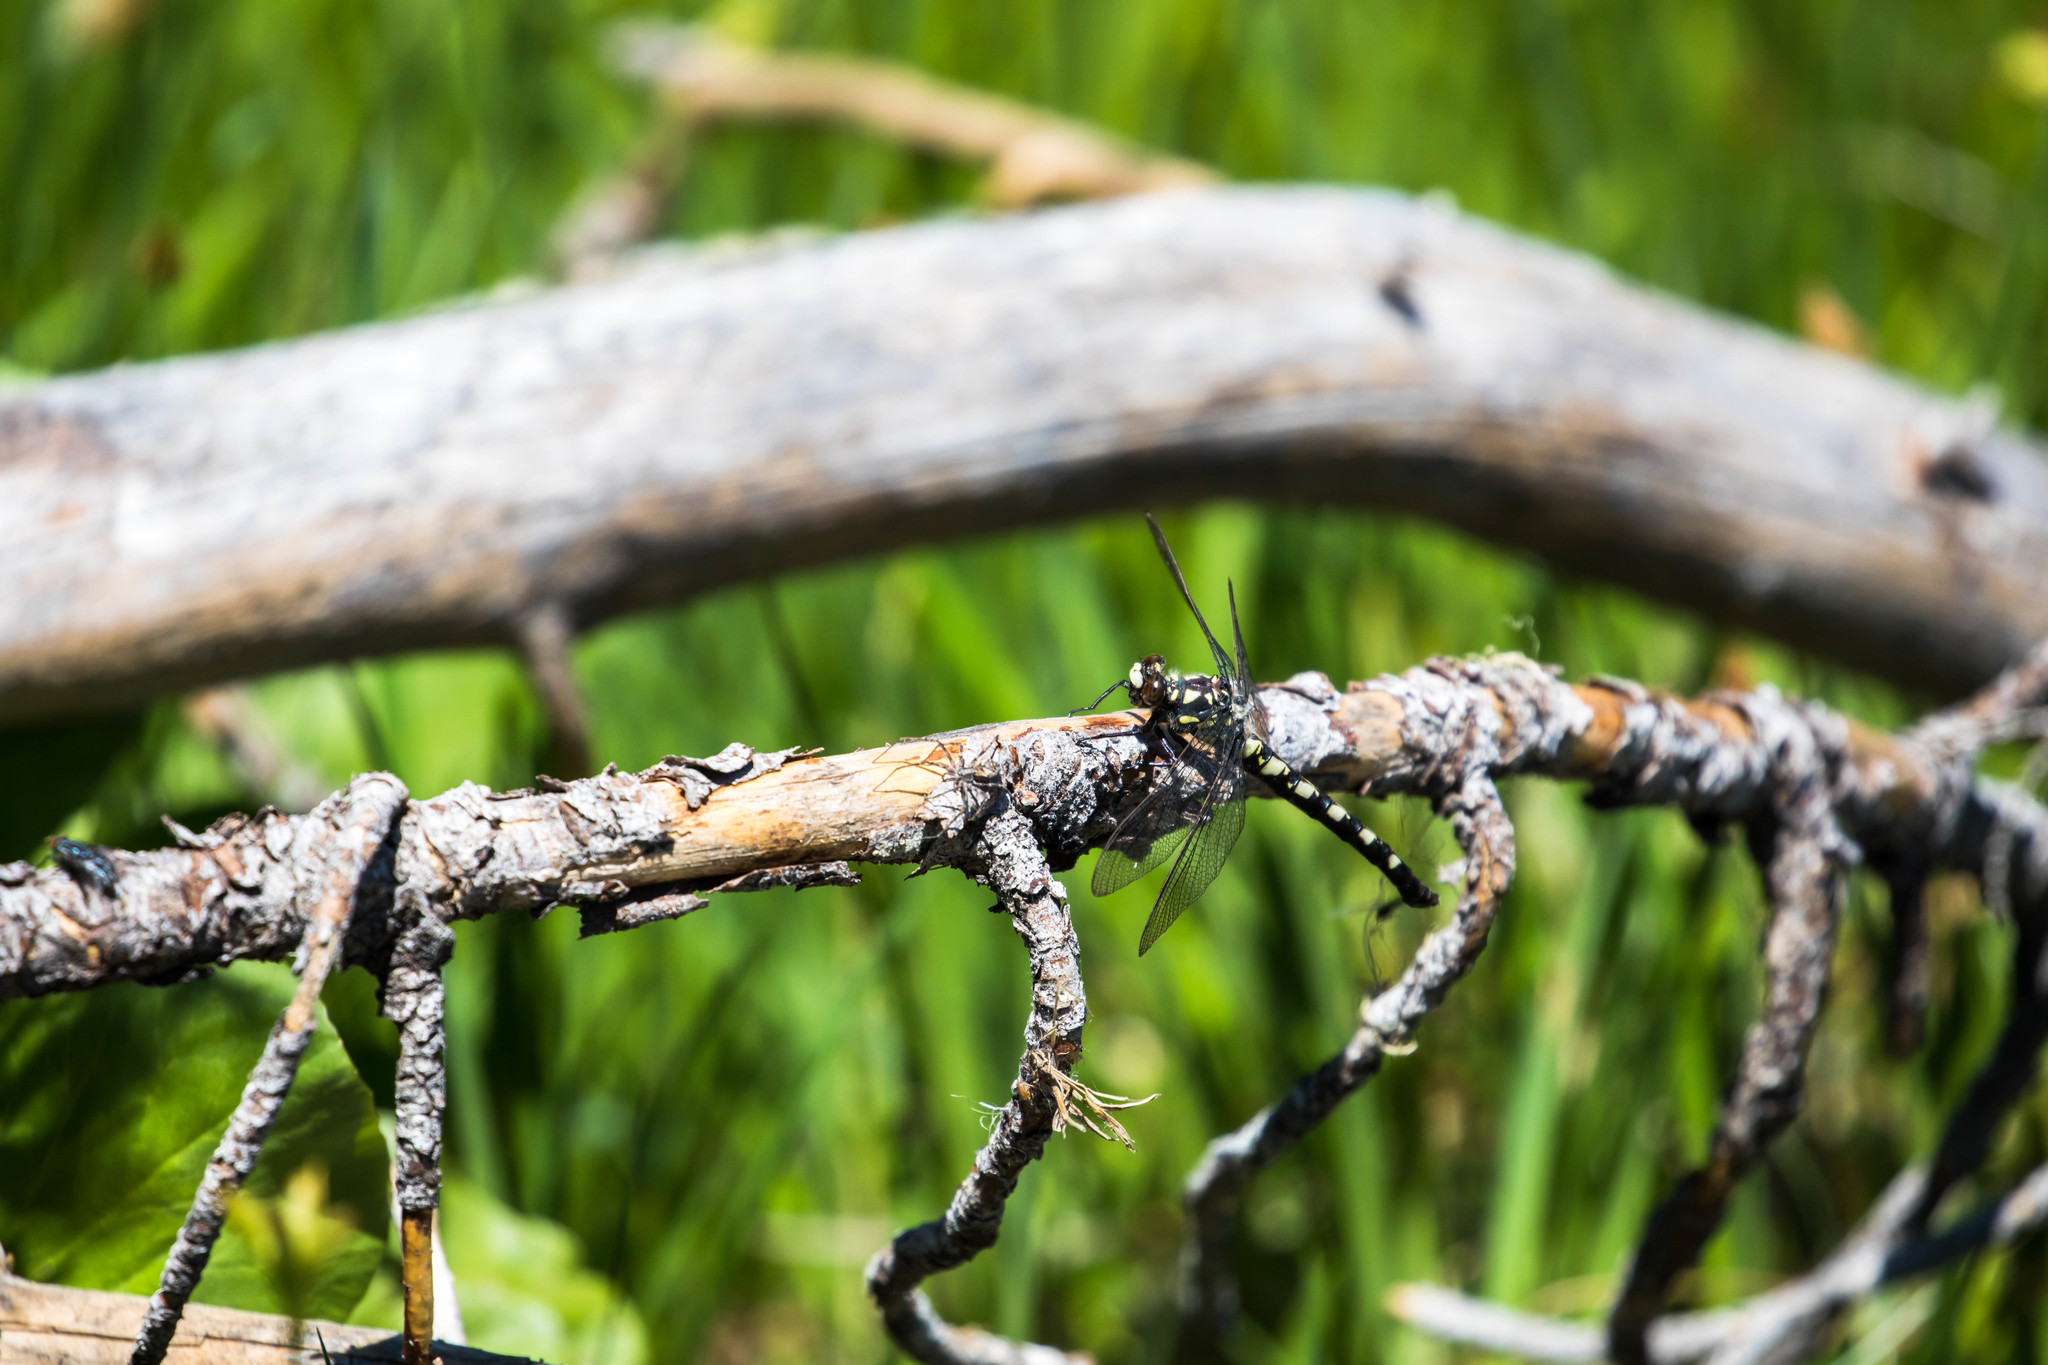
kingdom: Animalia
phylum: Arthropoda
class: Insecta
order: Odonata
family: Petaluridae
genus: Tanypteryx
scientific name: Tanypteryx hageni
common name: Black petaltail
